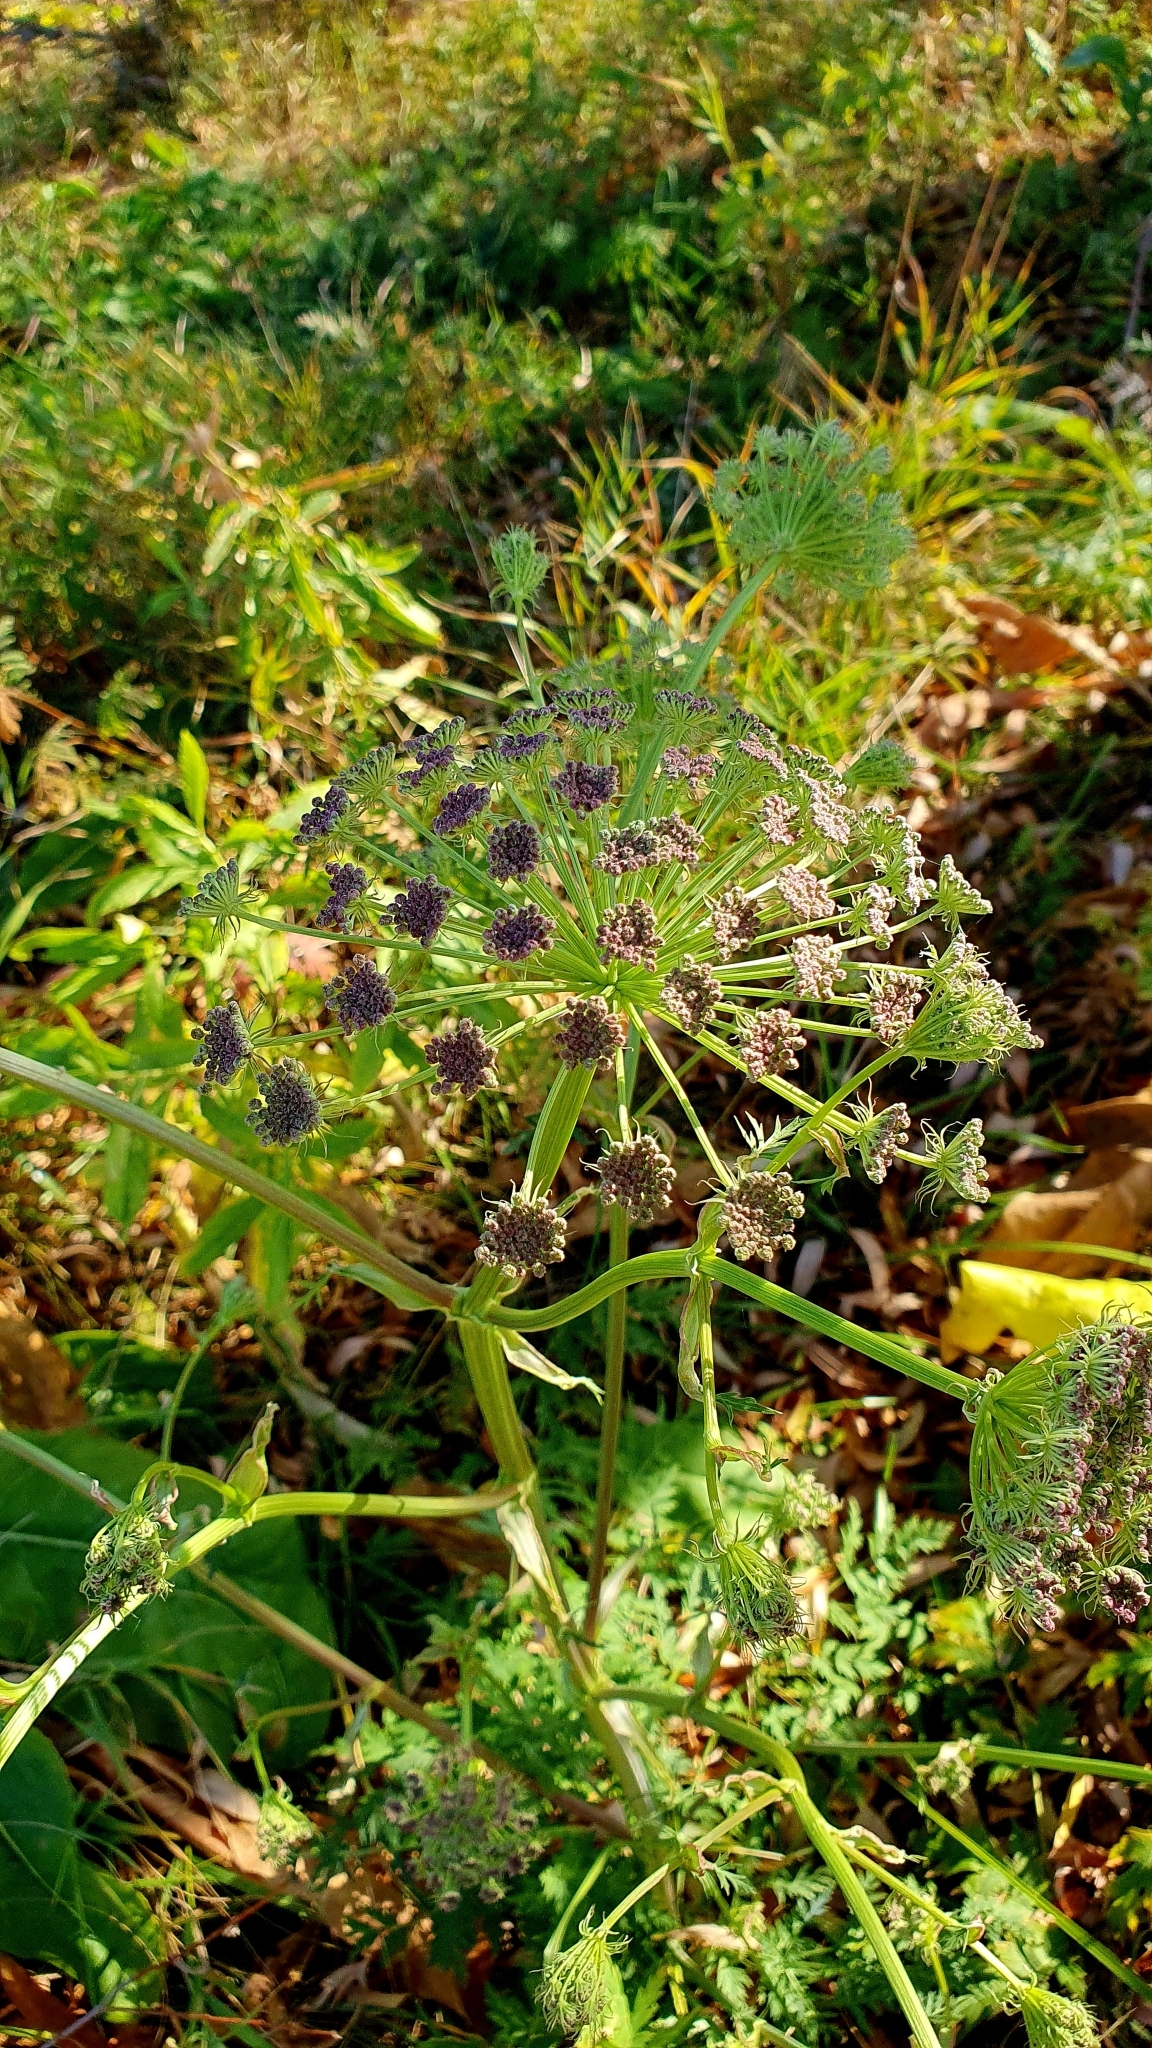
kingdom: Plantae
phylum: Tracheophyta
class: Magnoliopsida
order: Apiales
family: Apiaceae
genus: Seseli
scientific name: Seseli libanotis
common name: Mooncarrot
